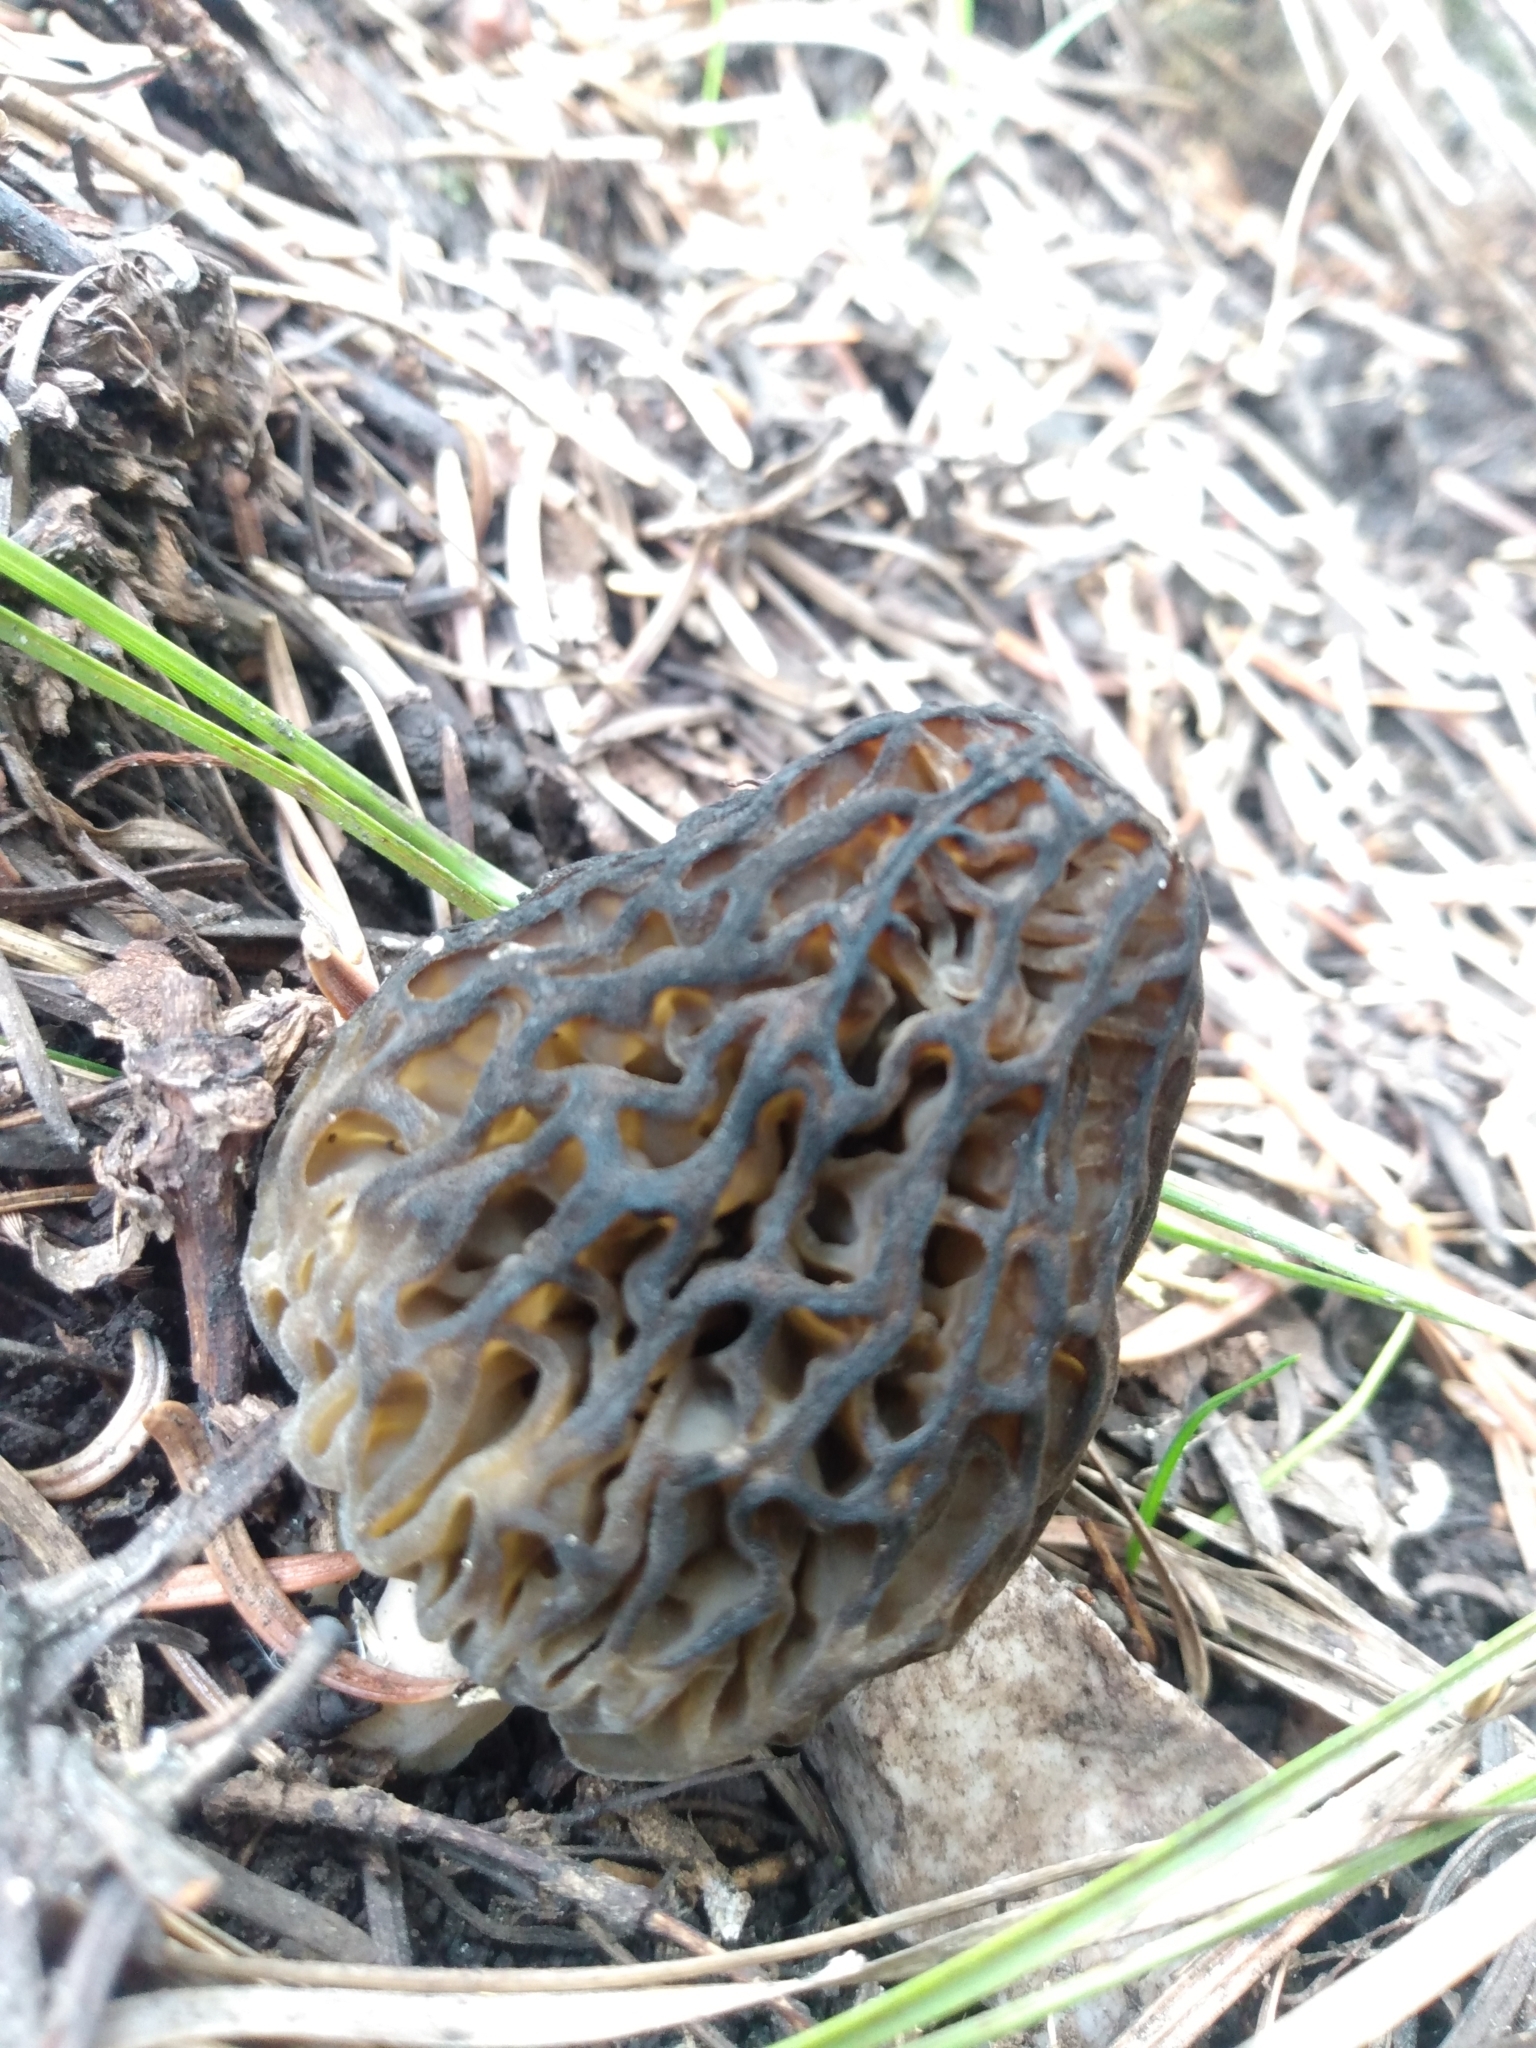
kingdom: Fungi
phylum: Ascomycota
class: Pezizomycetes
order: Pezizales
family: Morchellaceae
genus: Morchella
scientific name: Morchella snyderi
